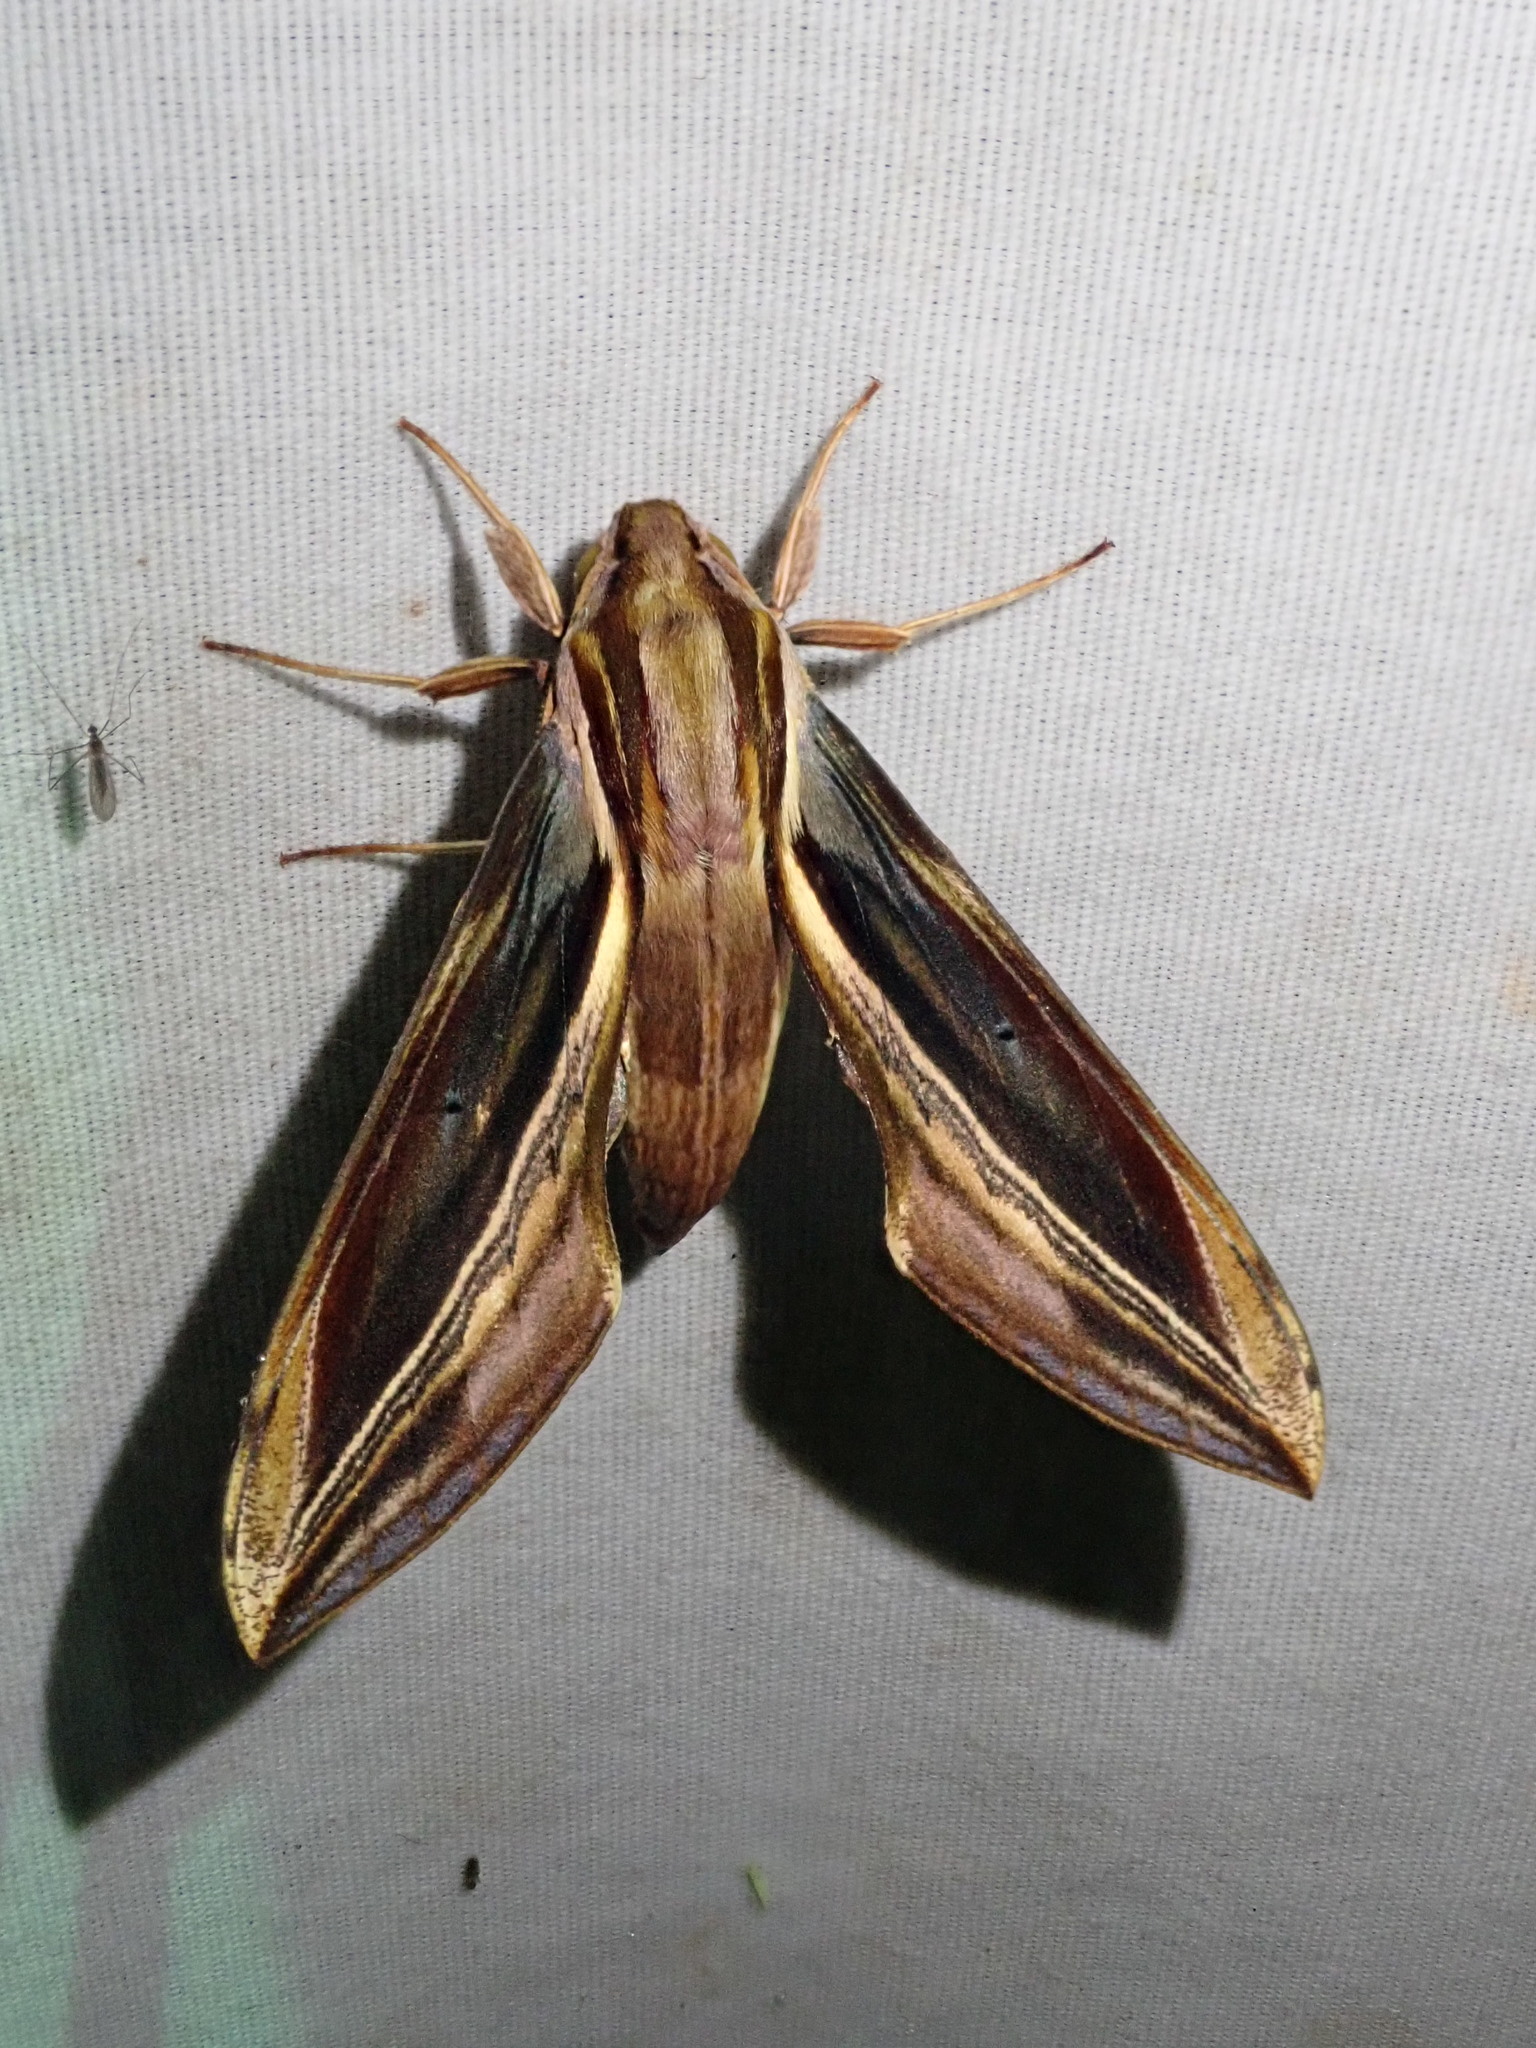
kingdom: Animalia
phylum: Arthropoda
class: Insecta
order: Lepidoptera
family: Sphingidae
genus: Xylophanes
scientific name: Xylophanes pyrrhus
